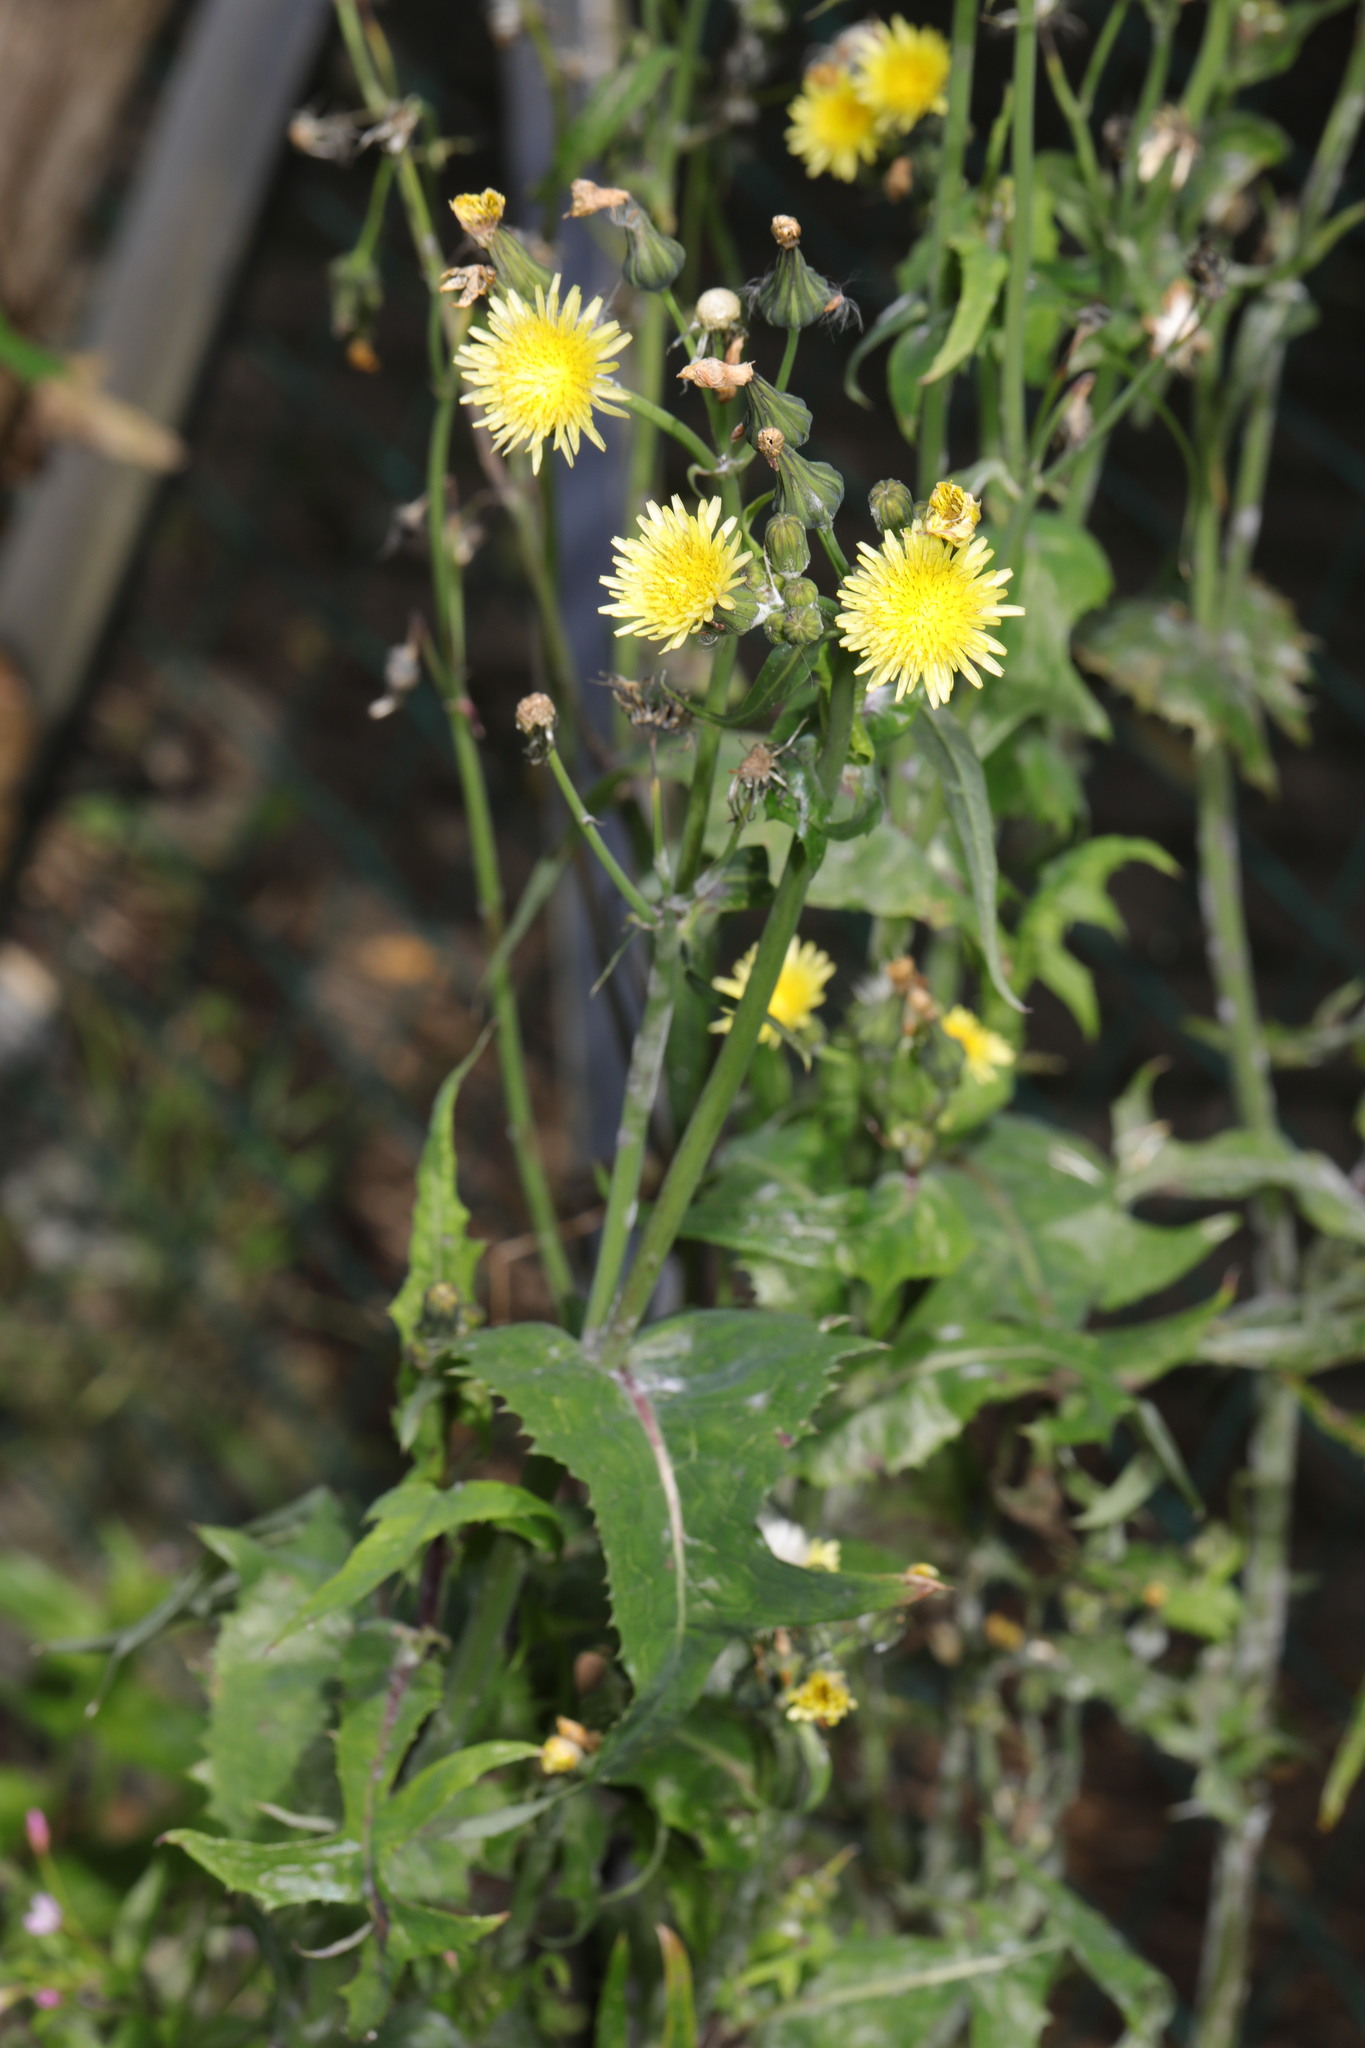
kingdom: Plantae
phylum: Tracheophyta
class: Magnoliopsida
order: Asterales
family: Asteraceae
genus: Sonchus
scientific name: Sonchus oleraceus
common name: Common sowthistle
